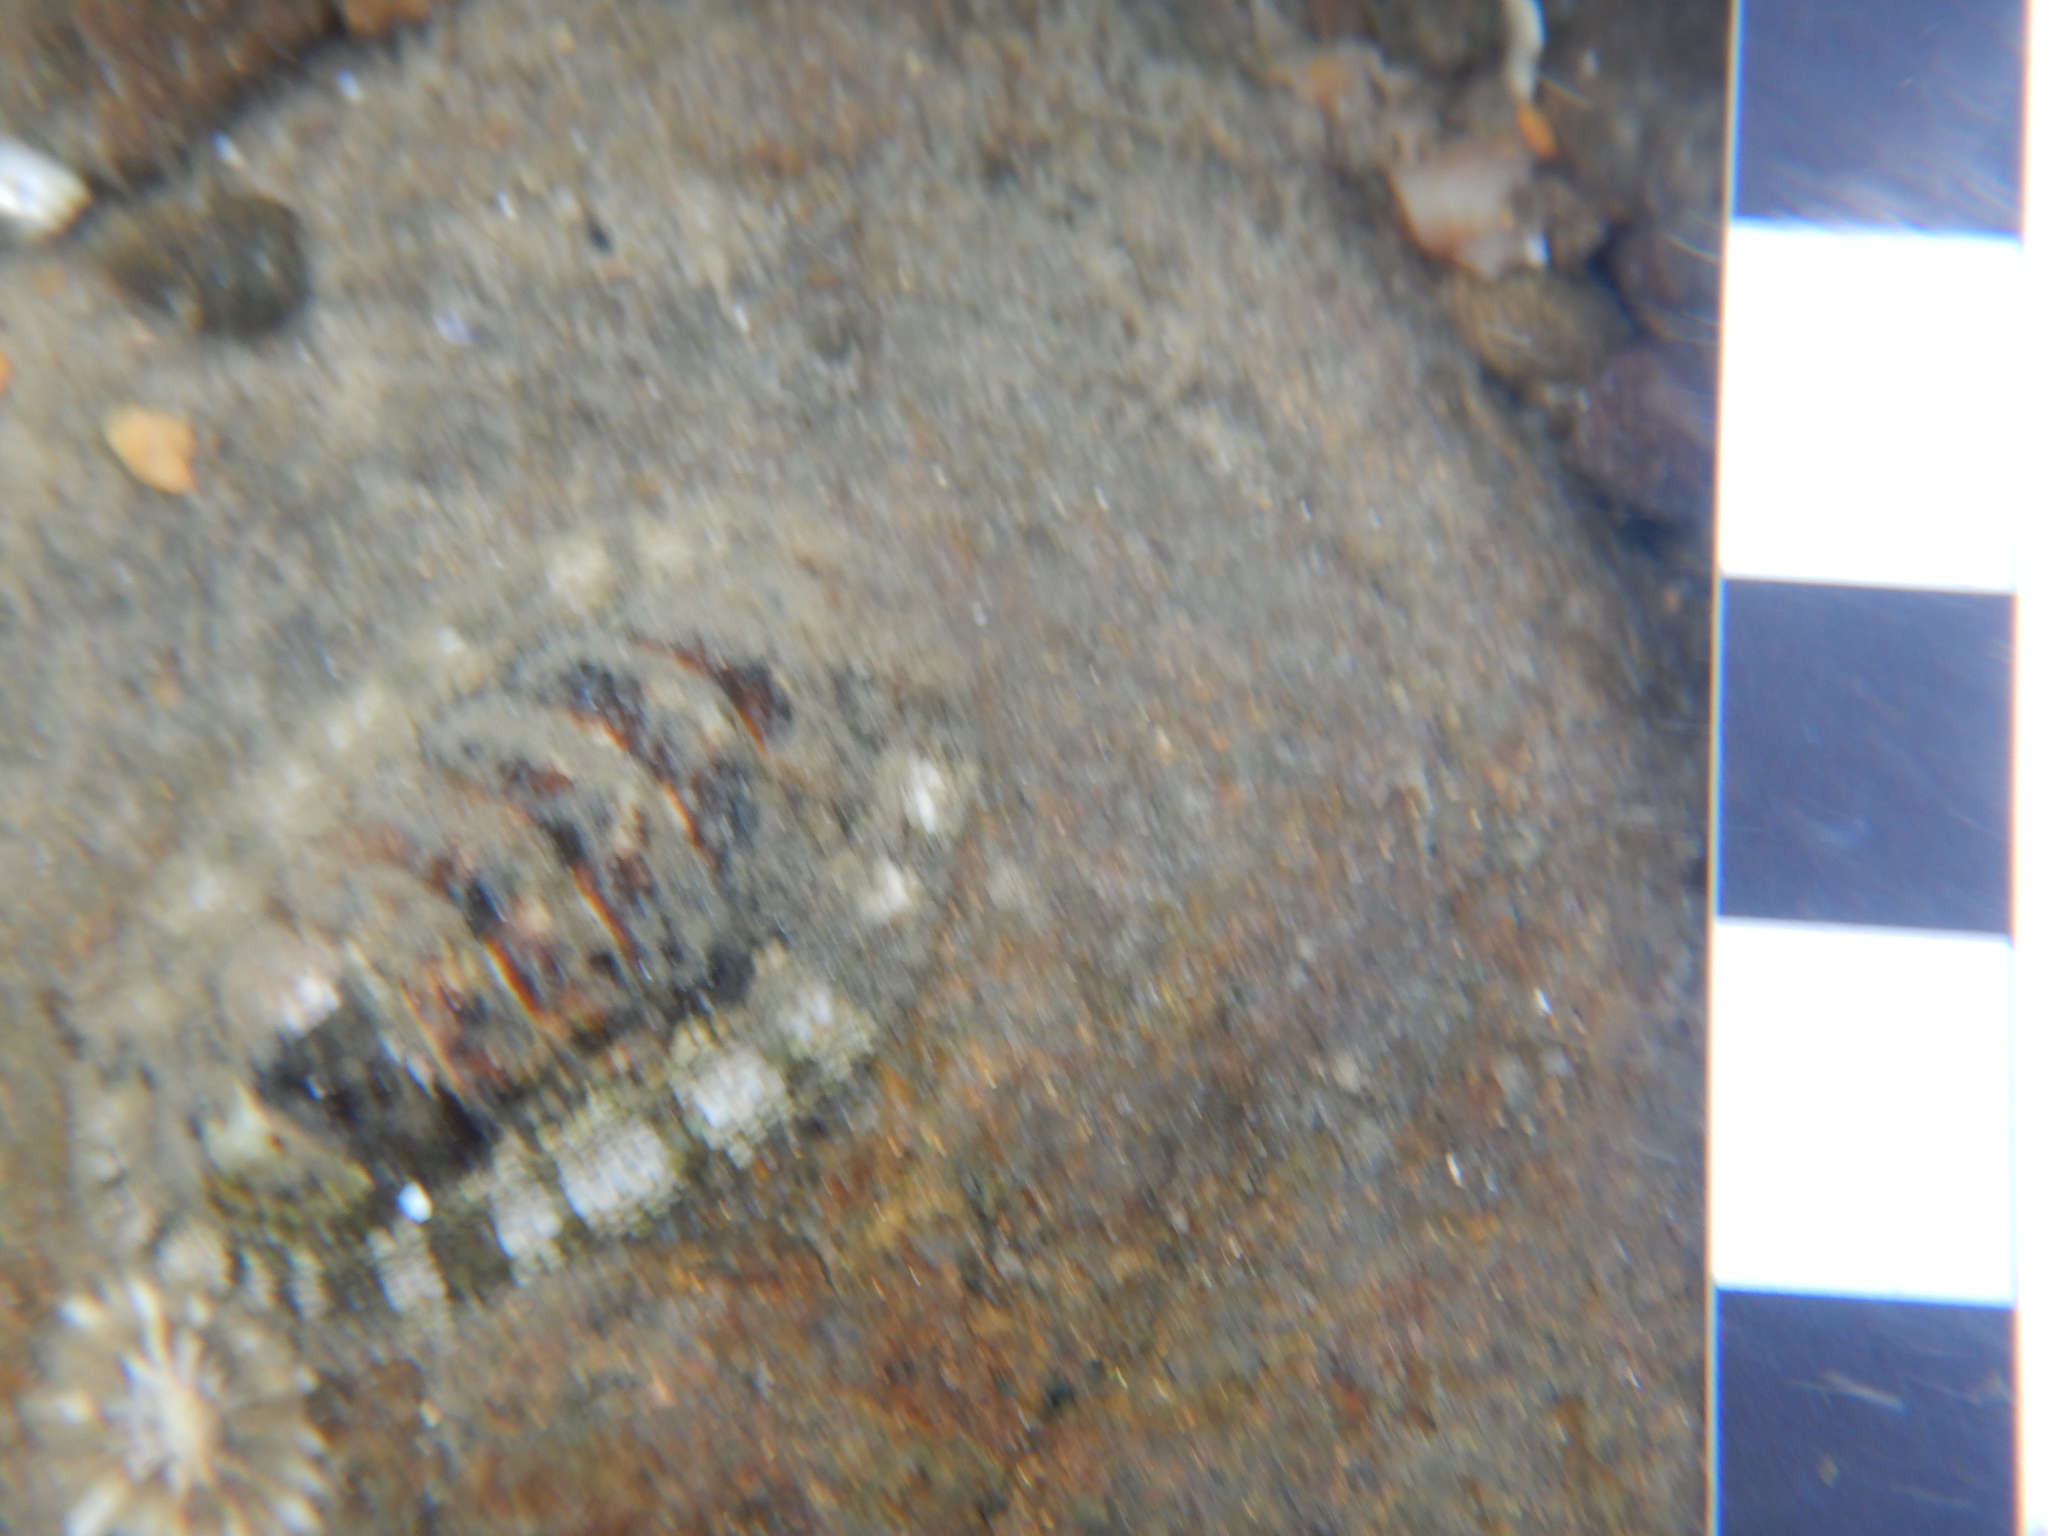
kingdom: Animalia
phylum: Mollusca
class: Polyplacophora
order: Chitonida
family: Chitonidae
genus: Sypharochiton
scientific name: Sypharochiton pelliserpentis
